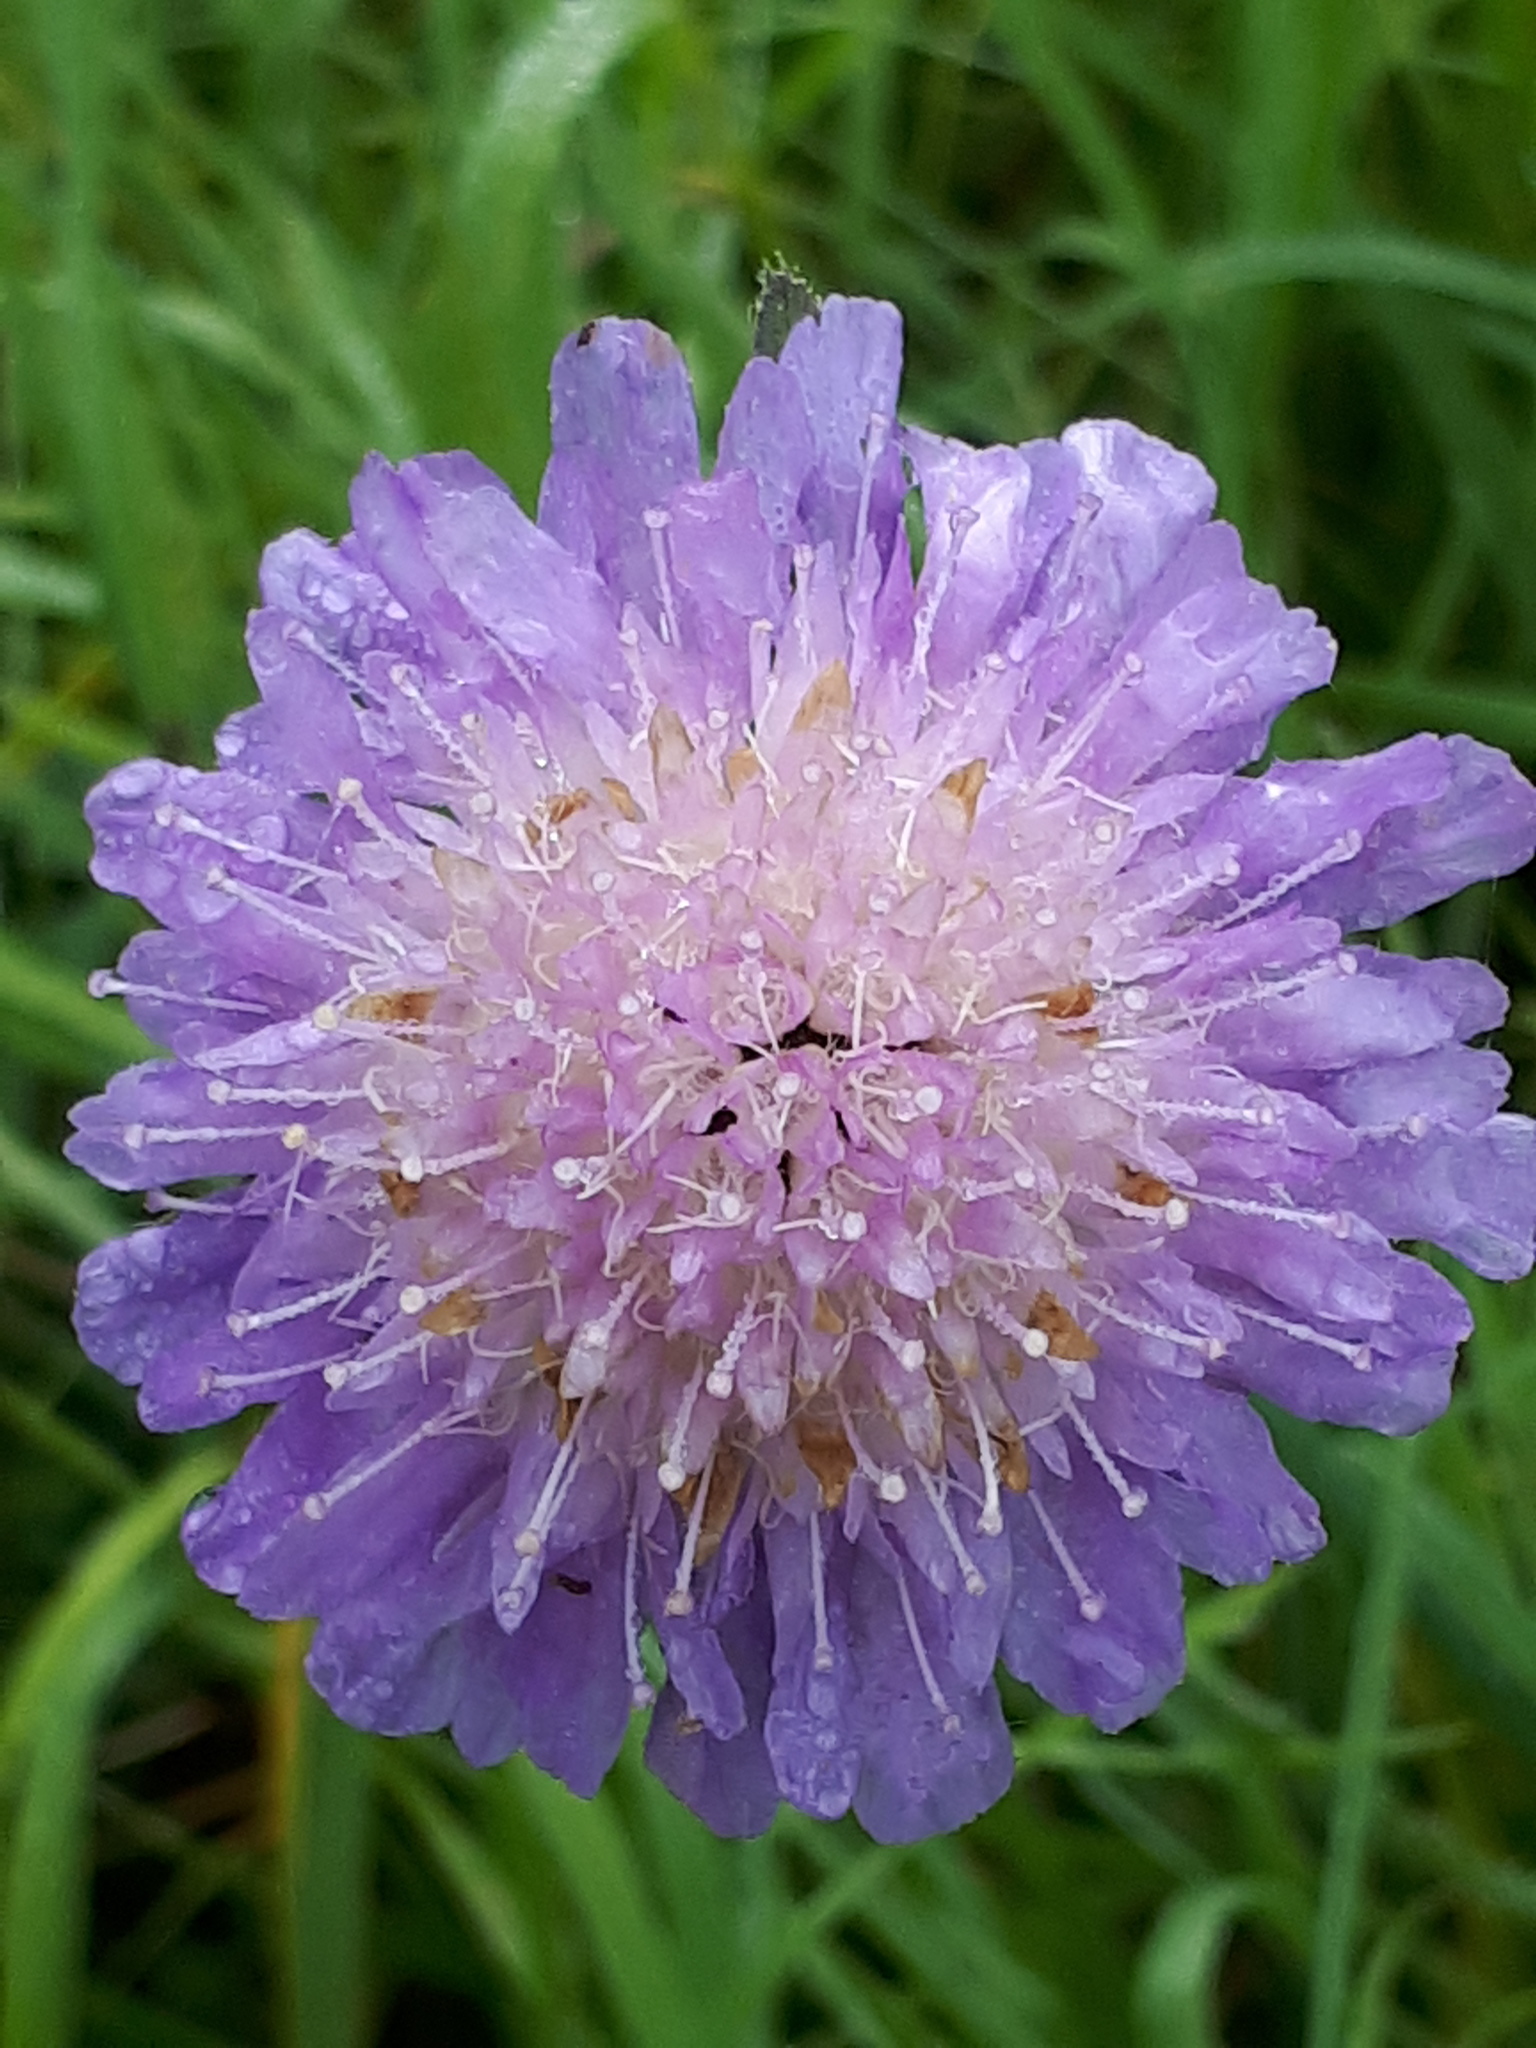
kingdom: Plantae
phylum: Tracheophyta
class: Magnoliopsida
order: Dipsacales
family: Caprifoliaceae
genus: Knautia
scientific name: Knautia arvensis
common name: Field scabiosa
